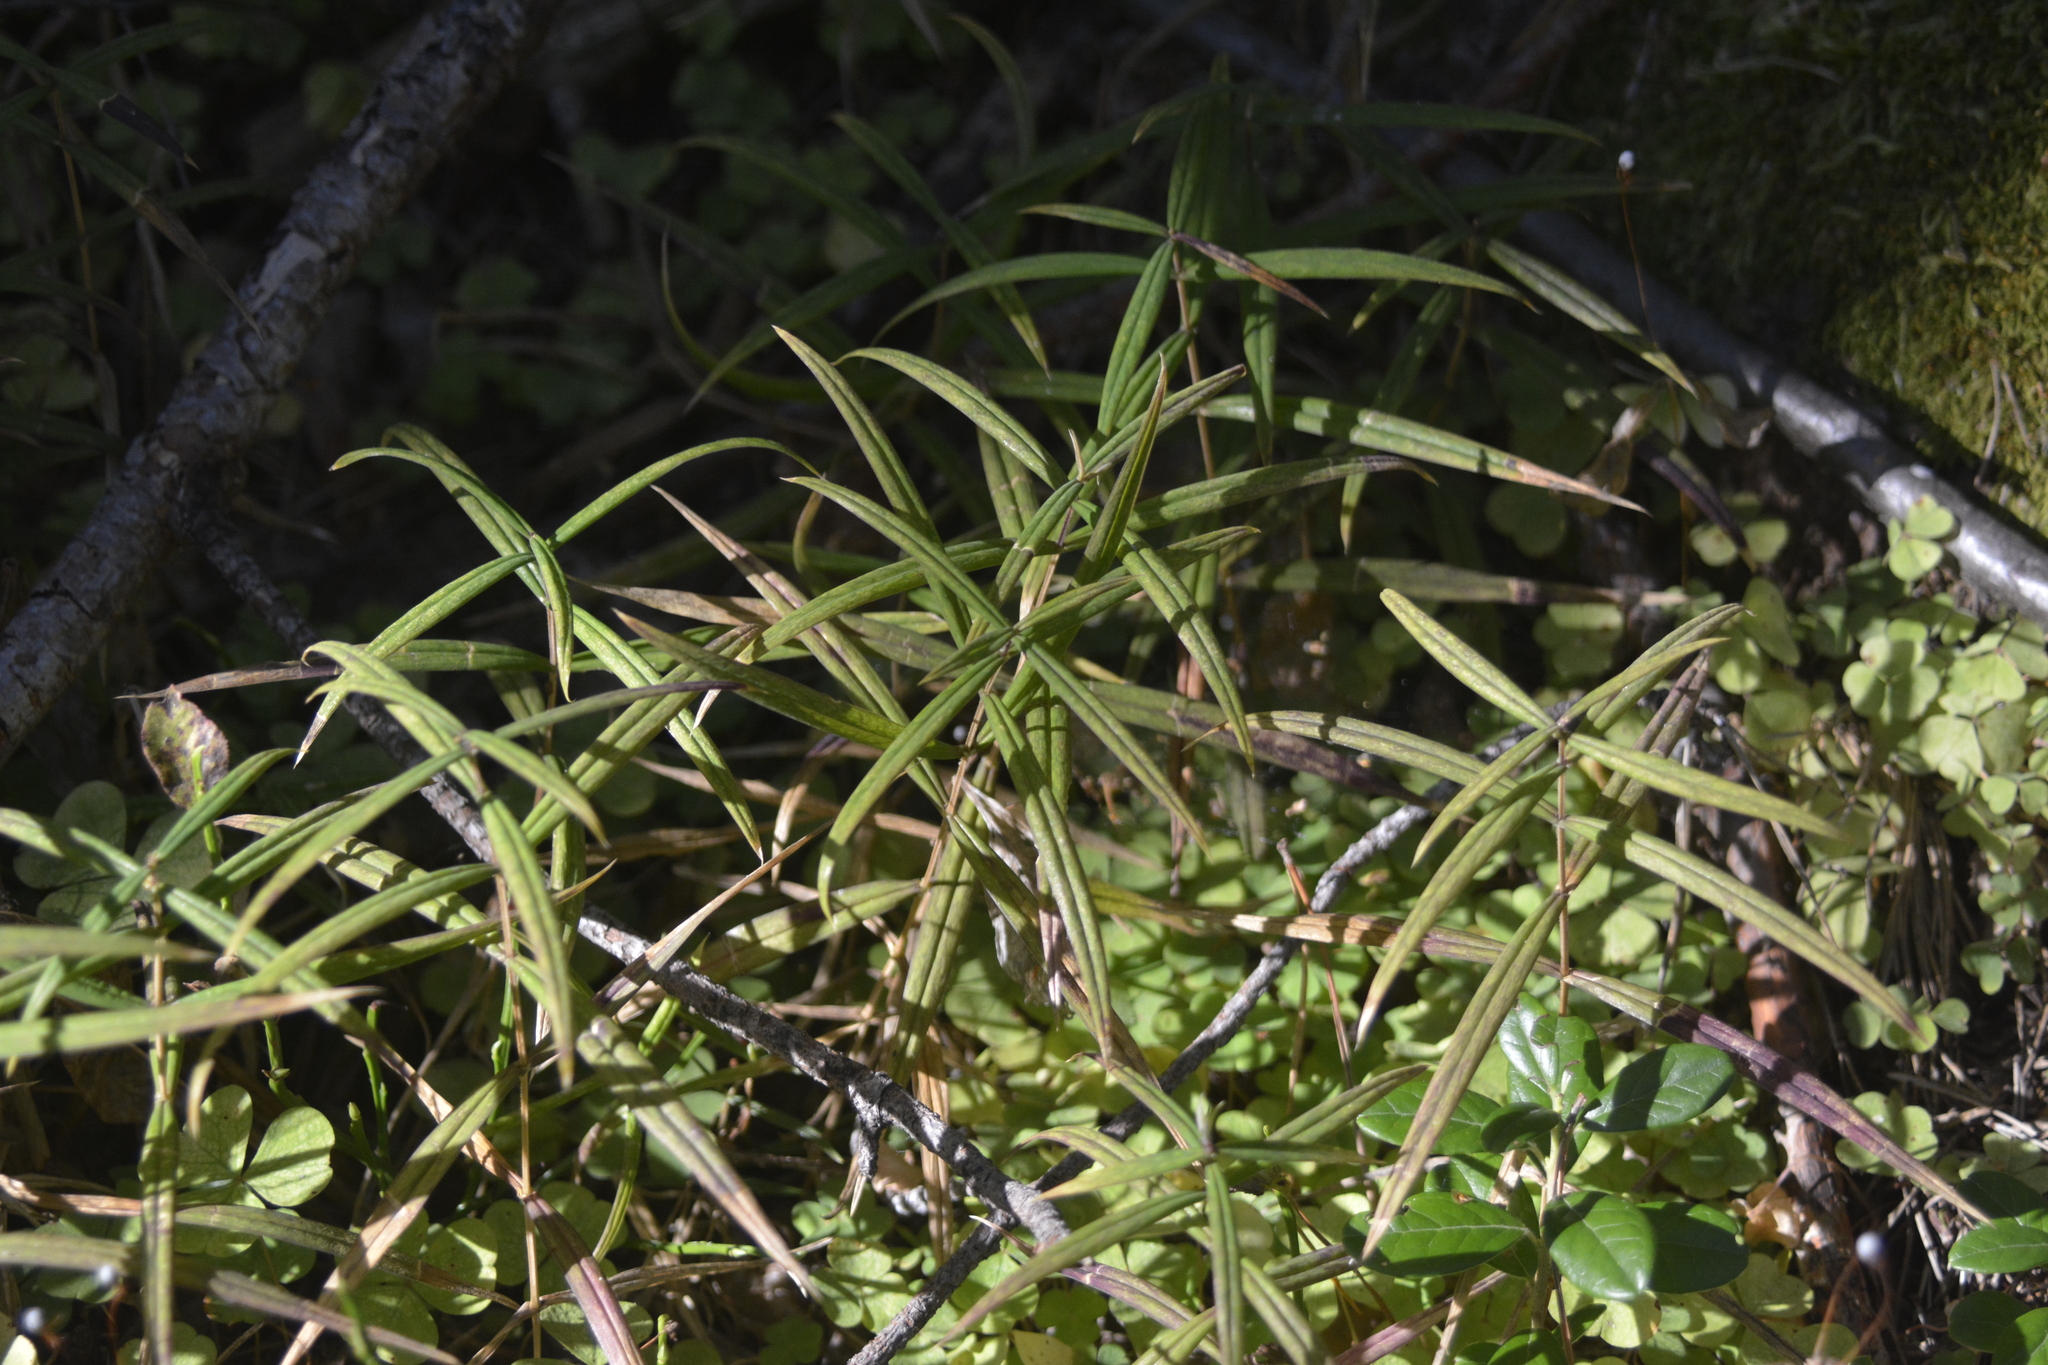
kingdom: Plantae
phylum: Tracheophyta
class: Magnoliopsida
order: Caryophyllales
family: Caryophyllaceae
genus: Rabelera
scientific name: Rabelera holostea
